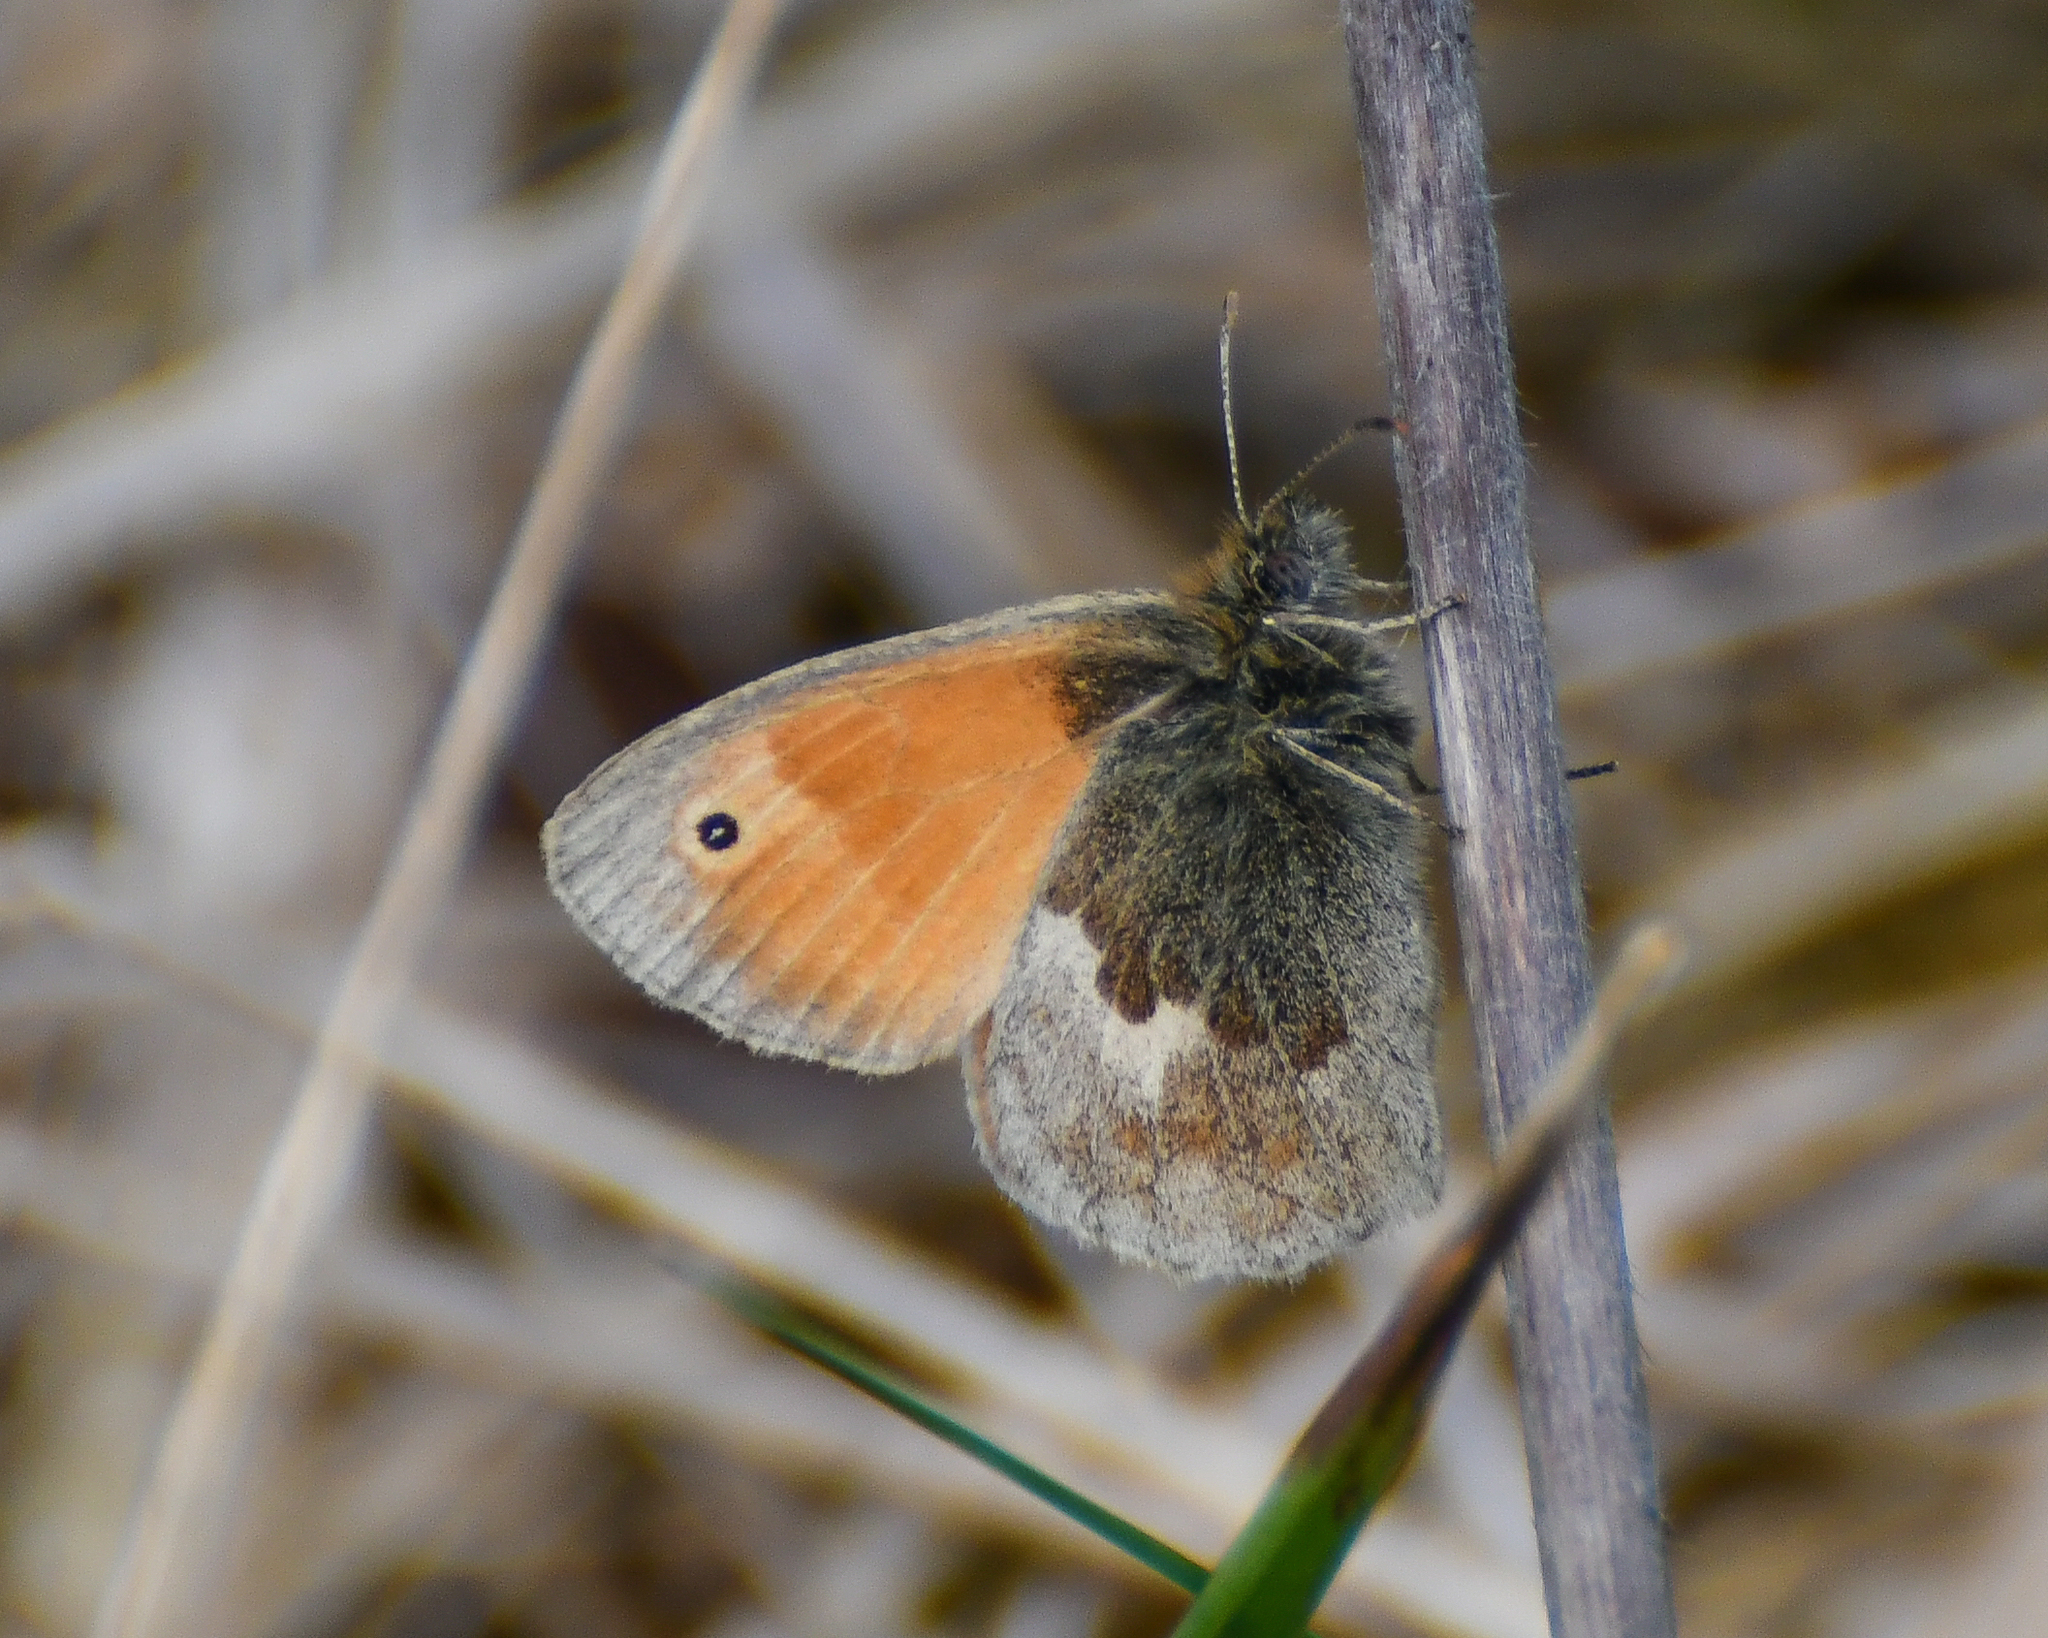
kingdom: Animalia
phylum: Arthropoda
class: Insecta
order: Lepidoptera
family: Nymphalidae
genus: Coenonympha
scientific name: Coenonympha pamphilus
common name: Small heath
